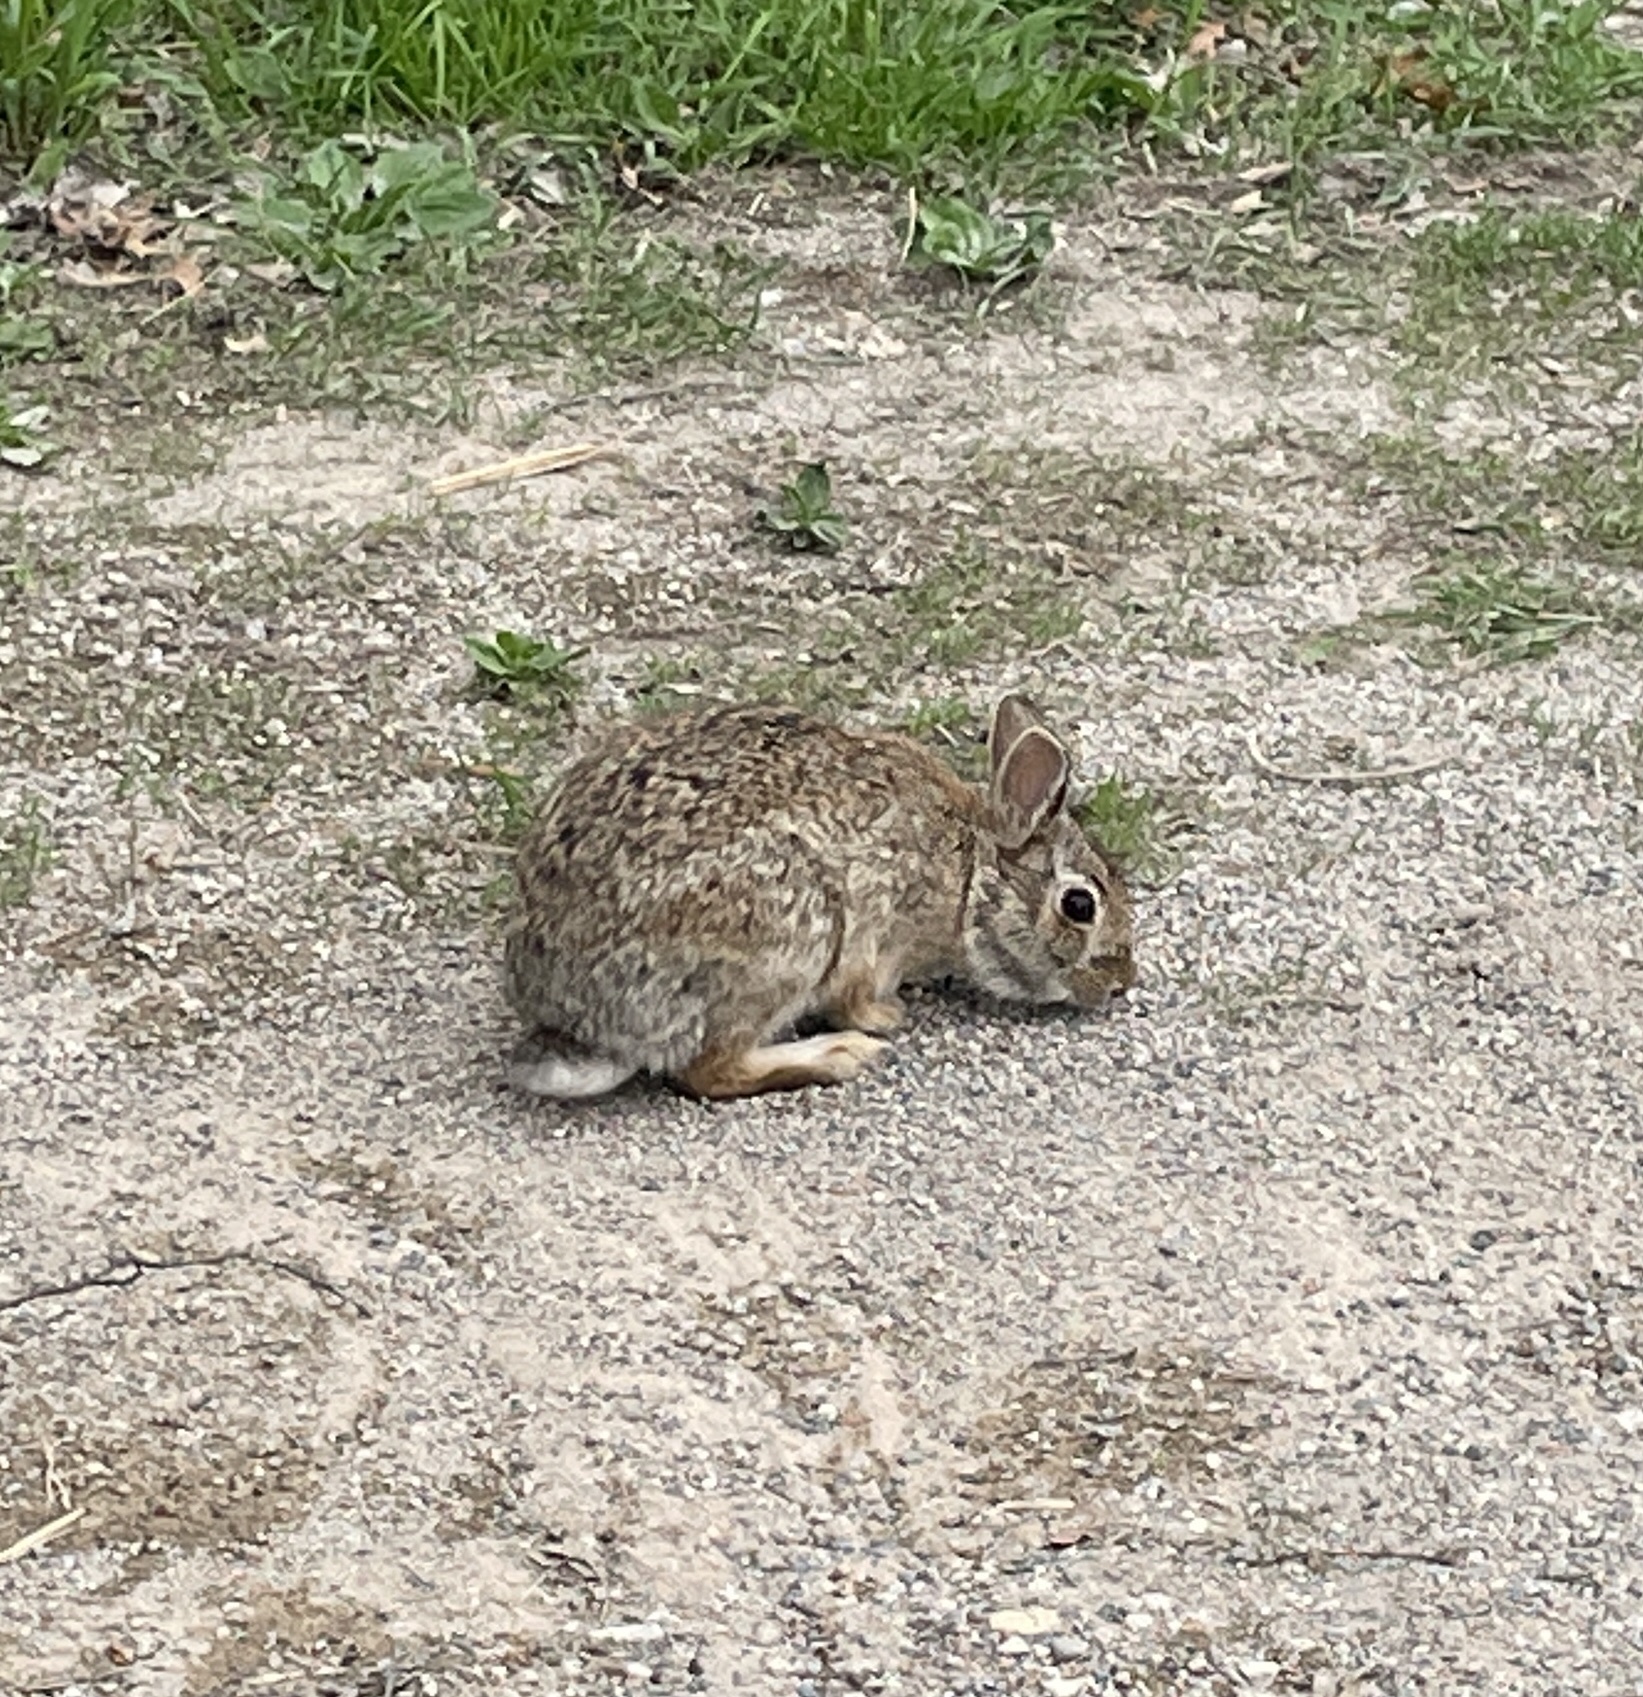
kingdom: Animalia
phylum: Chordata
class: Mammalia
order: Lagomorpha
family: Leporidae
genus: Sylvilagus
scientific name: Sylvilagus floridanus
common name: Eastern cottontail
